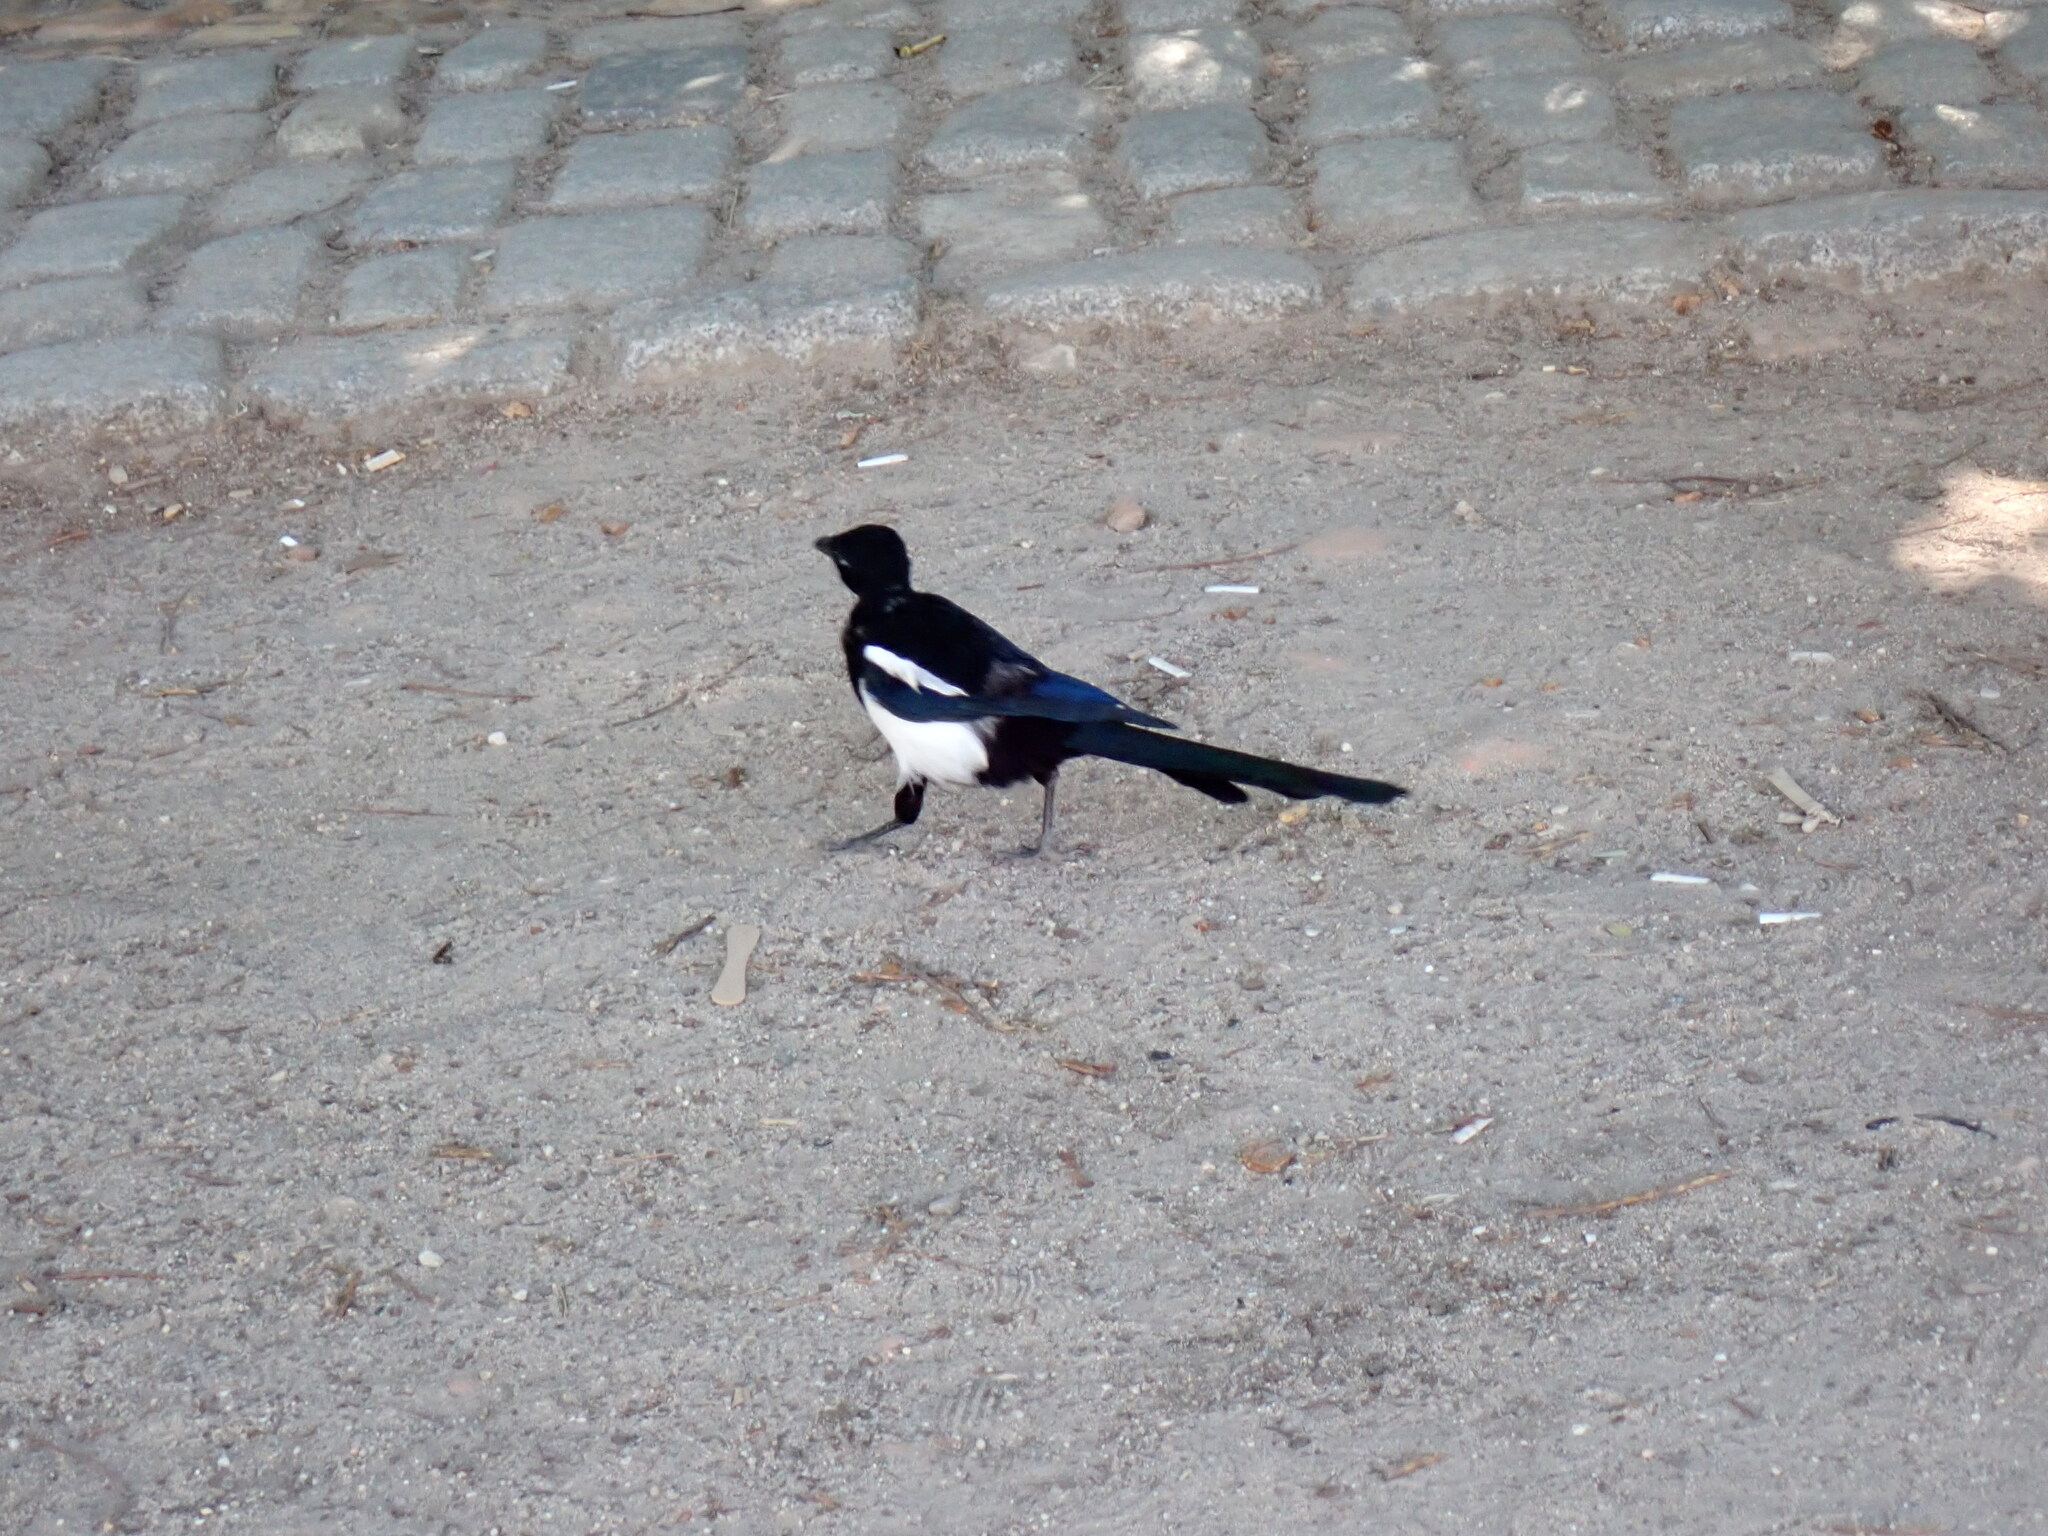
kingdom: Animalia
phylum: Chordata
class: Aves
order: Passeriformes
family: Corvidae
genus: Pica
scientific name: Pica pica
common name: Eurasian magpie
